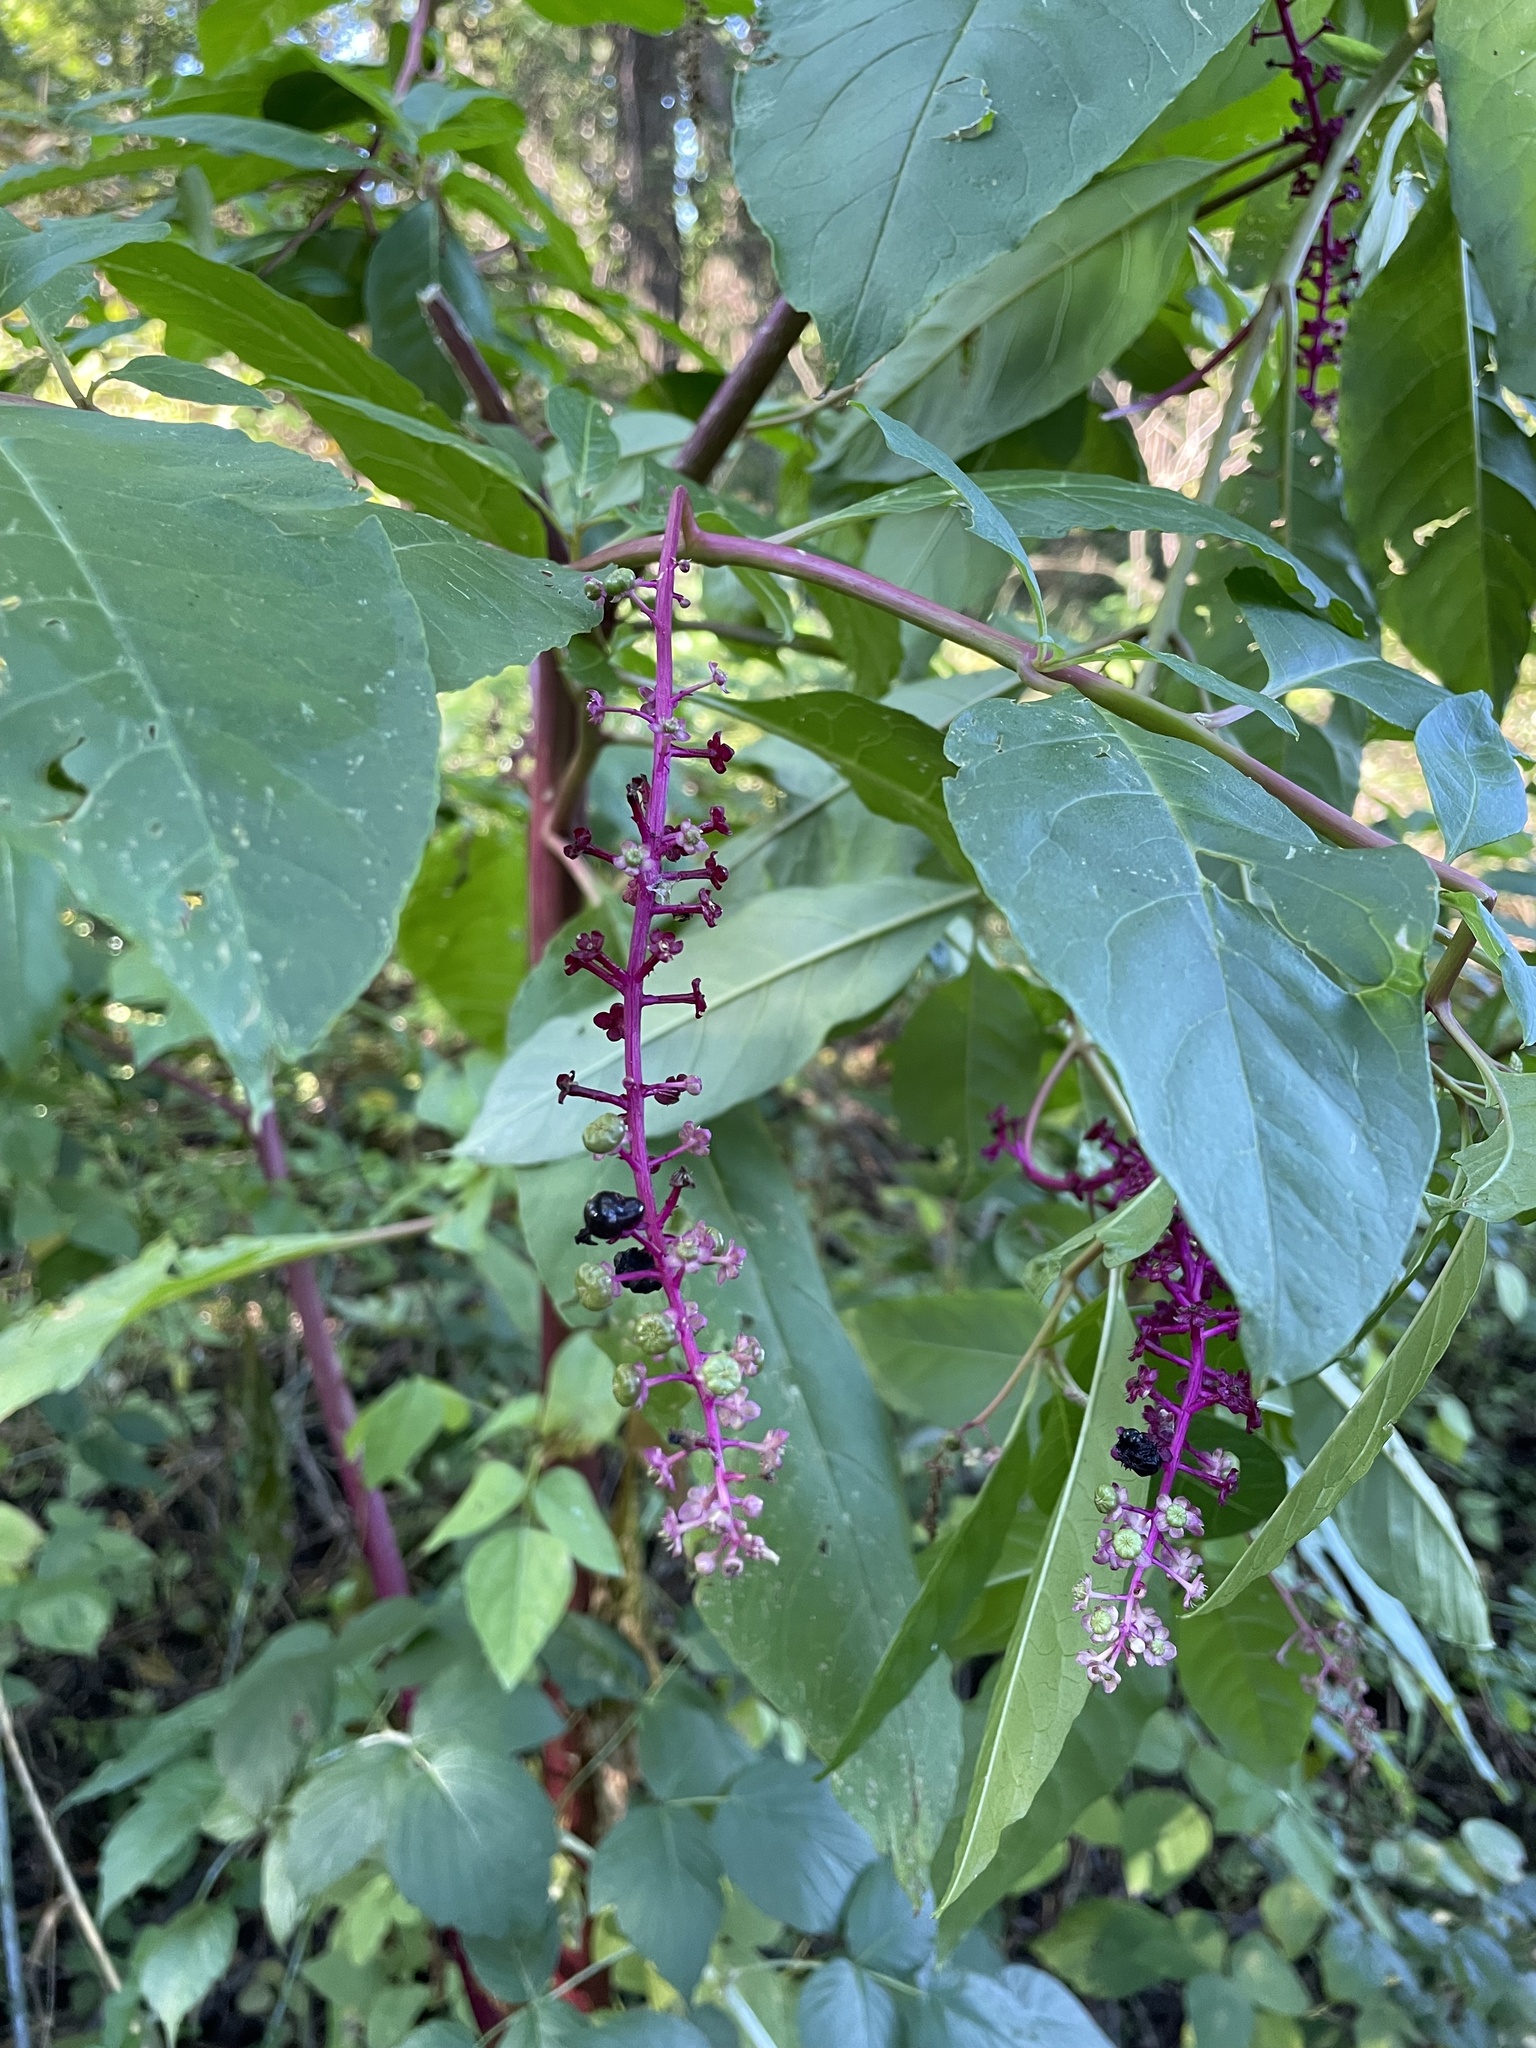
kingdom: Plantae
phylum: Tracheophyta
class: Magnoliopsida
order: Caryophyllales
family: Phytolaccaceae
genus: Phytolacca
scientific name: Phytolacca americana
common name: American pokeweed
